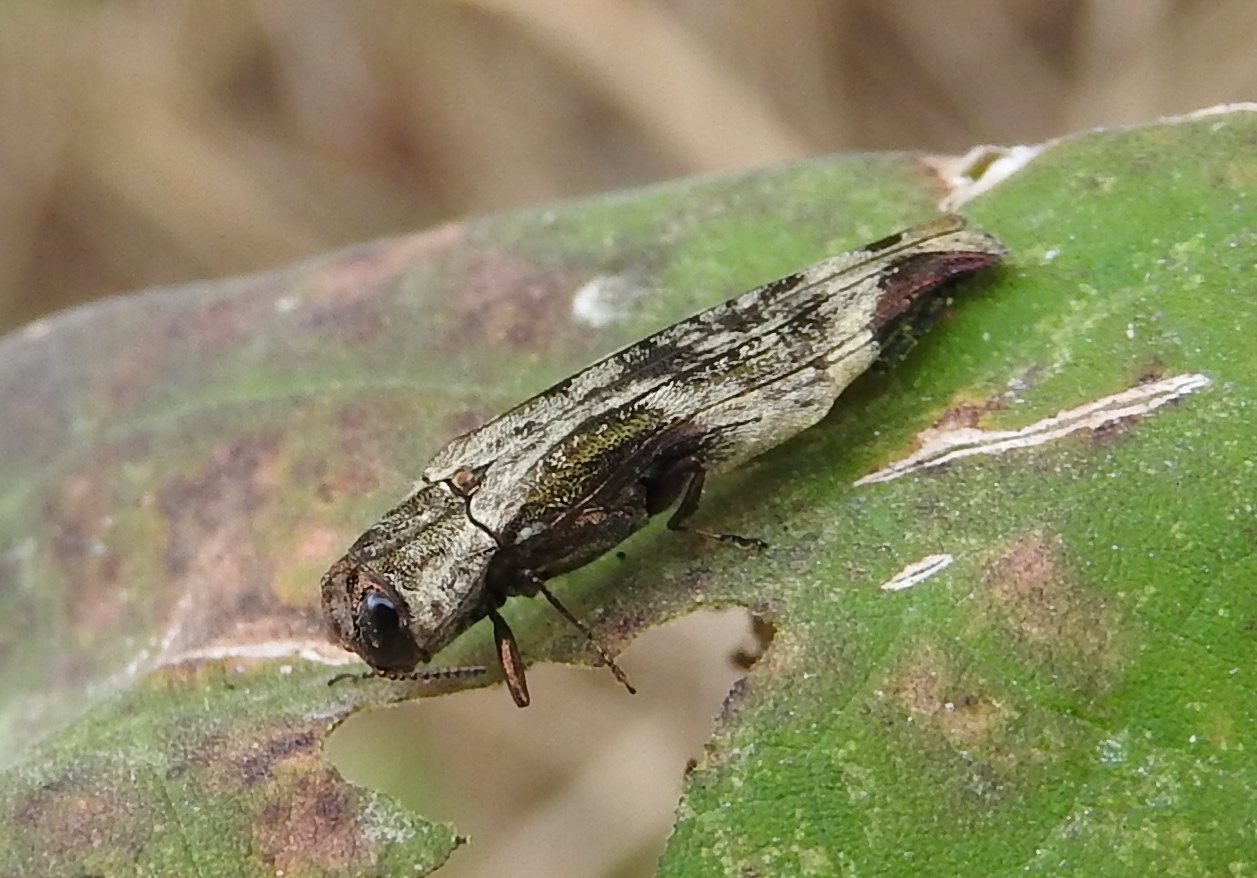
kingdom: Animalia
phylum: Arthropoda
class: Insecta
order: Coleoptera
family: Buprestidae
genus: Agrilus
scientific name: Agrilus langei
